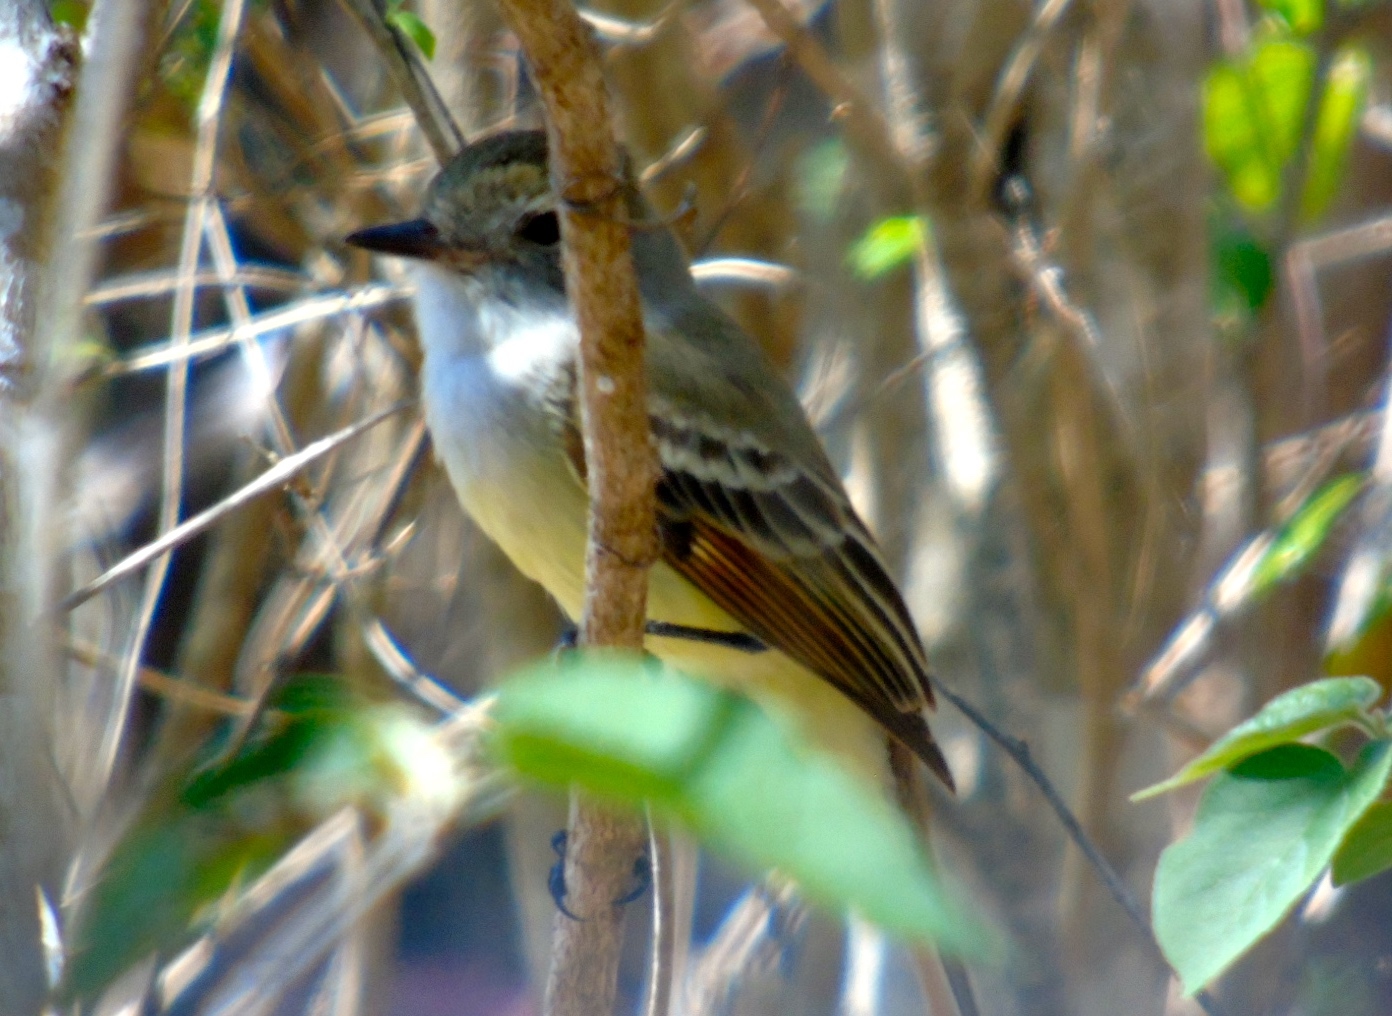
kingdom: Animalia
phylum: Chordata
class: Aves
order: Passeriformes
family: Tyrannidae
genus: Myiarchus
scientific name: Myiarchus nuttingi
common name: Nutting's flycatcher
